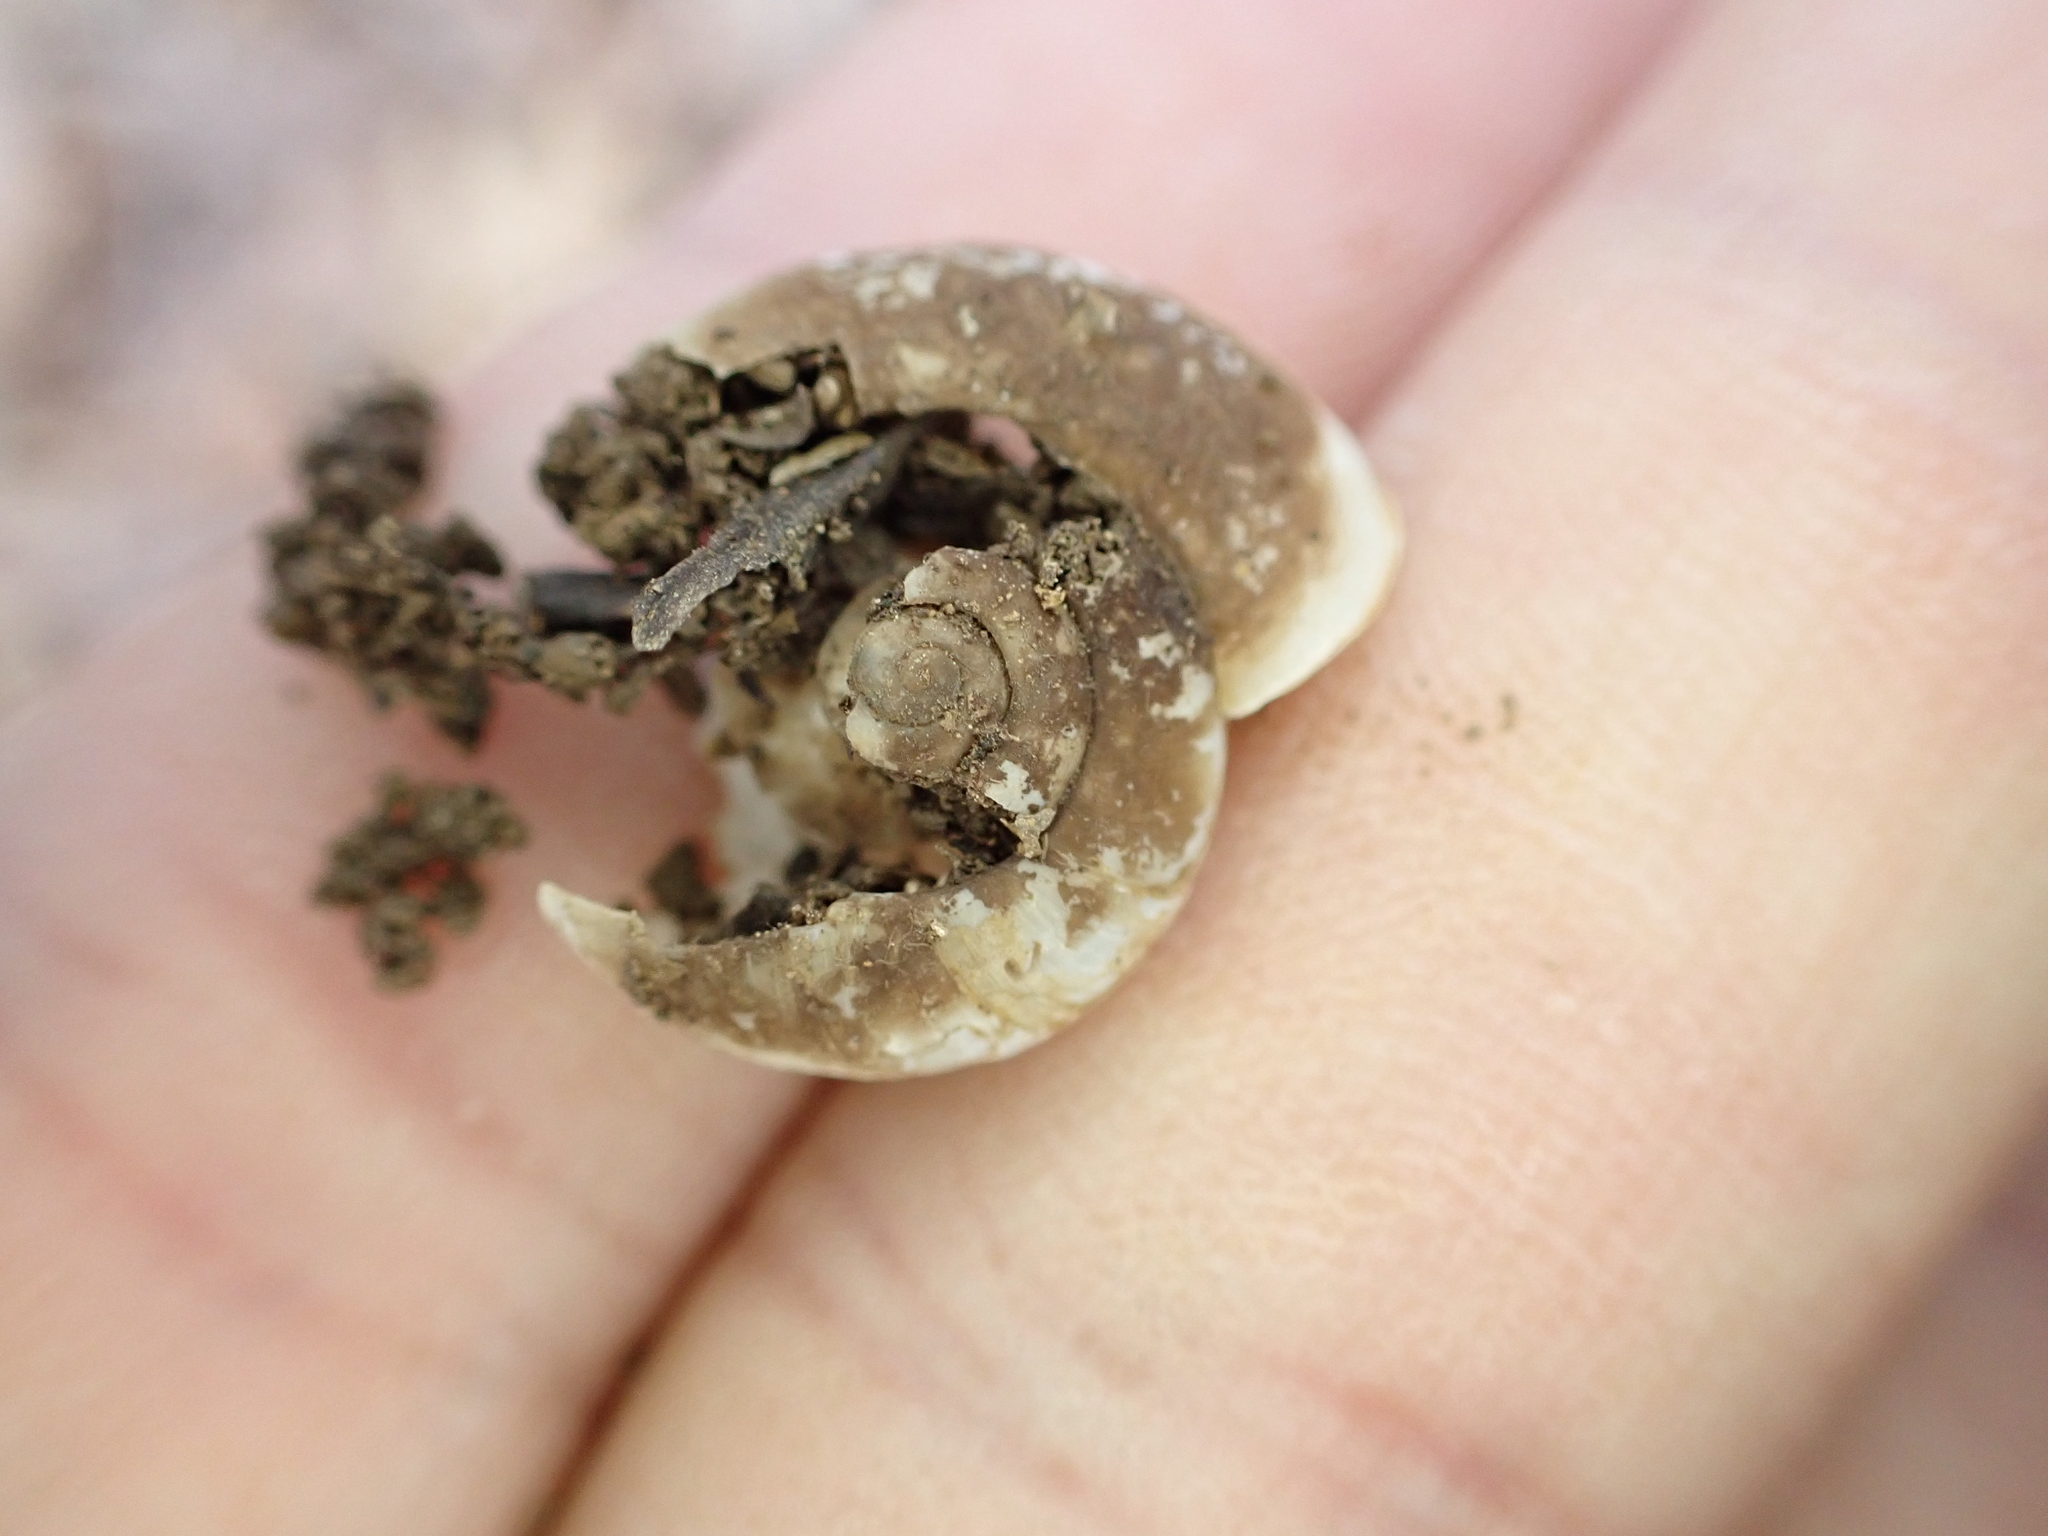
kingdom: Animalia
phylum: Mollusca
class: Gastropoda
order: Stylommatophora
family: Haplotrematidae
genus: Haplotrema
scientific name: Haplotrema concavum
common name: Gray-foot lancetooth
